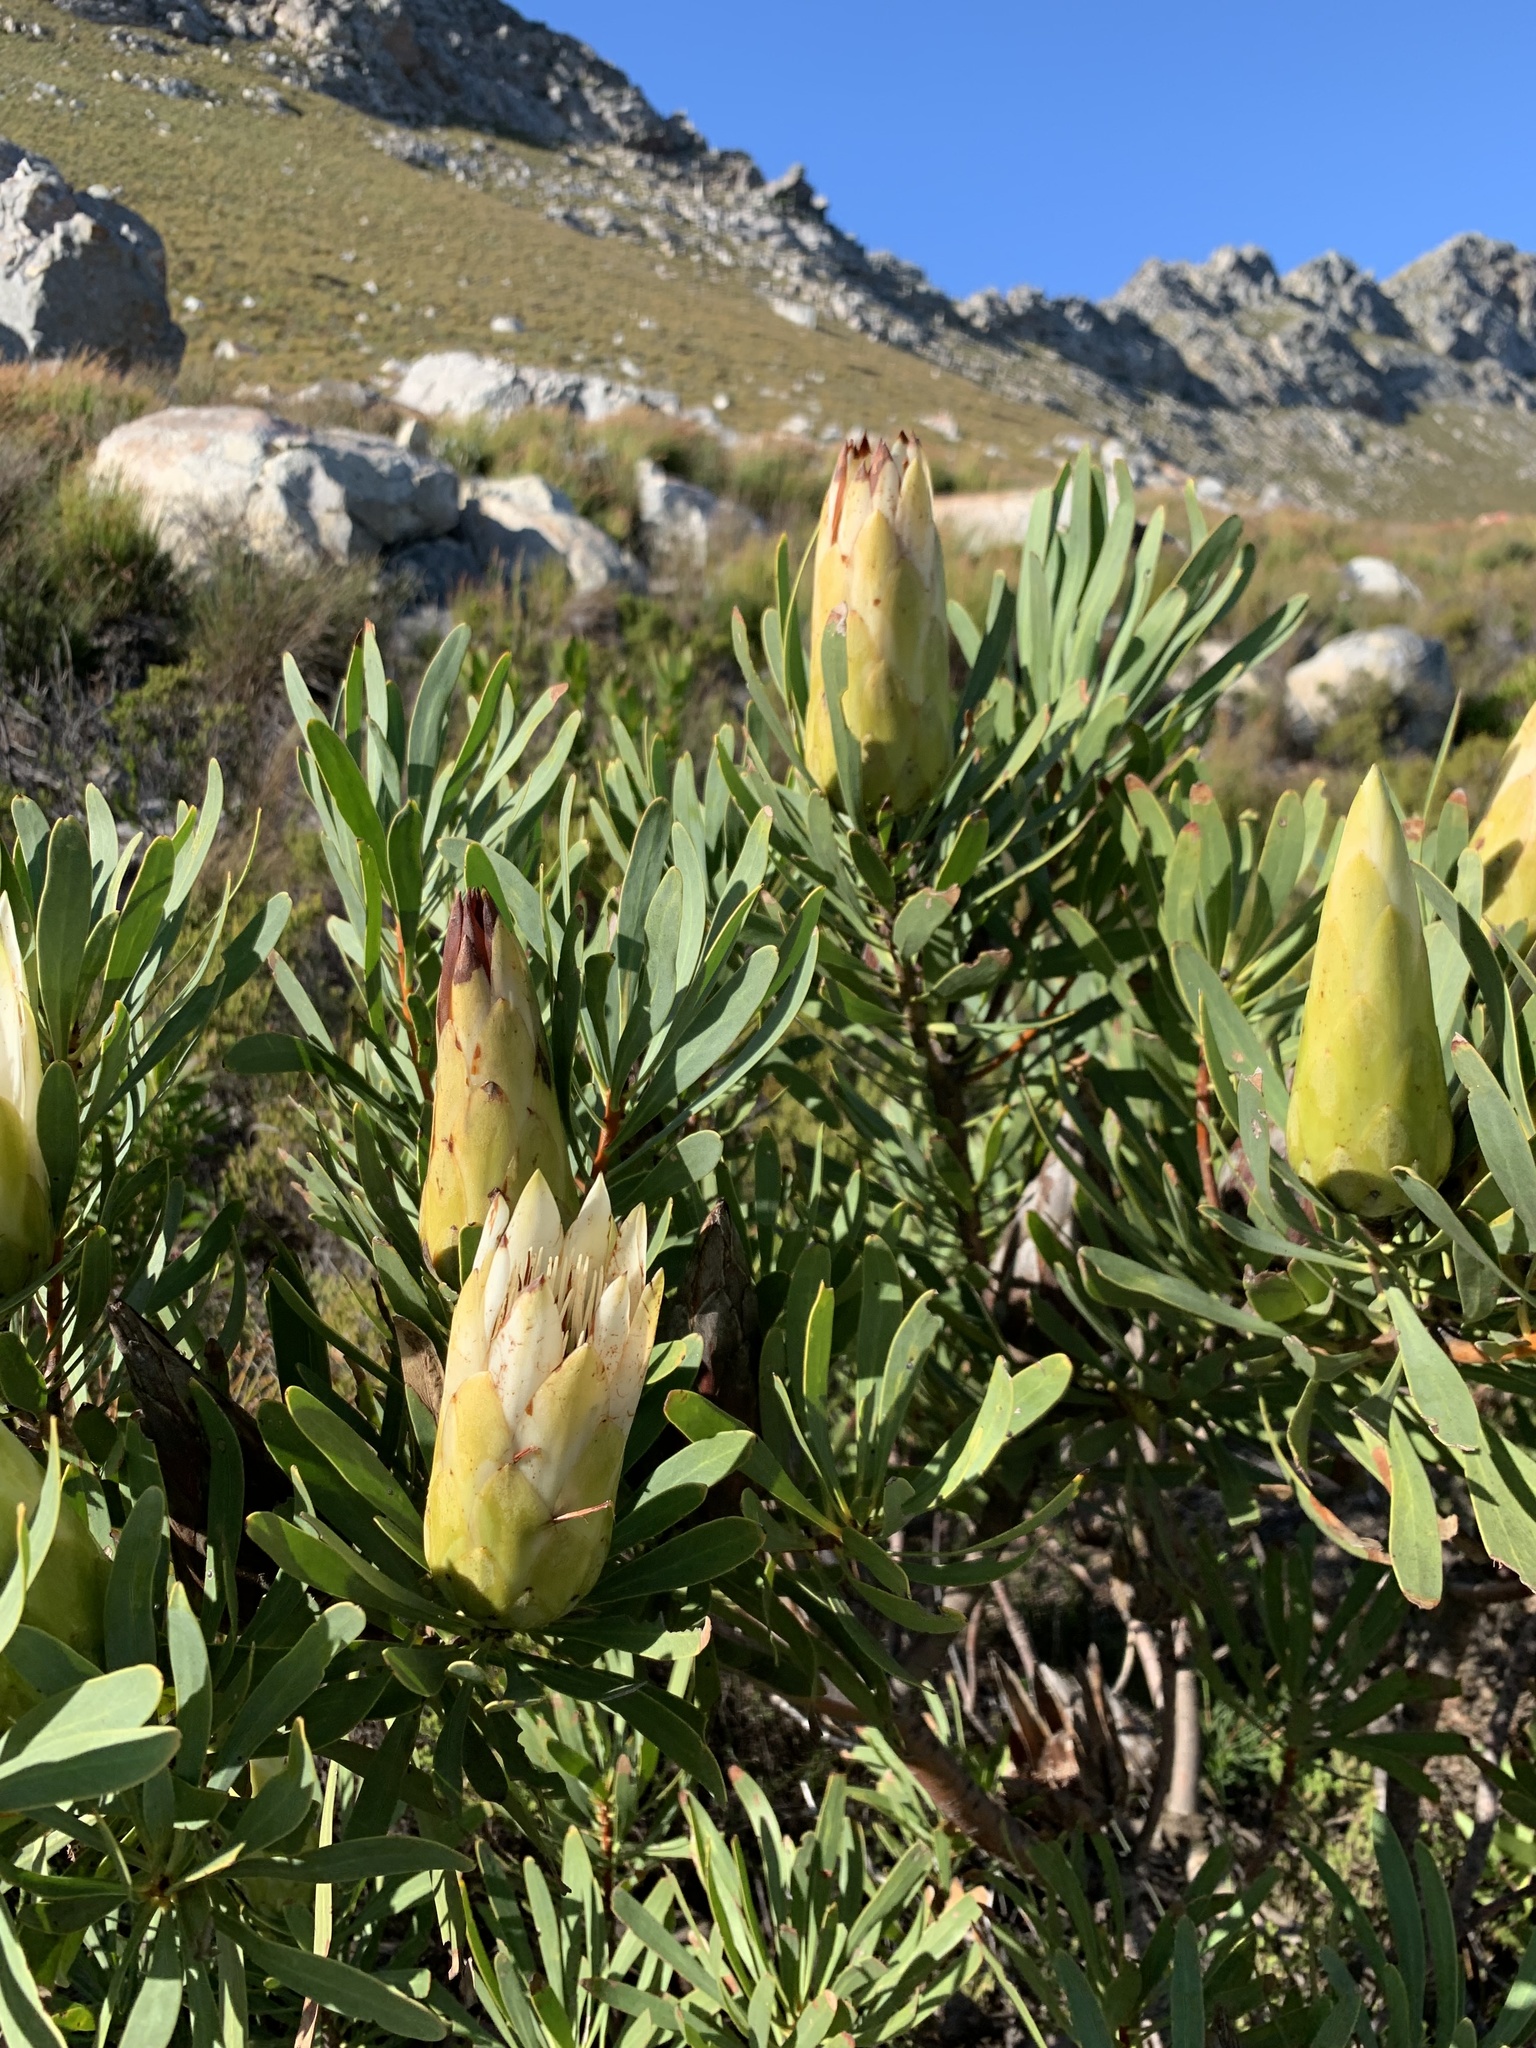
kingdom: Plantae
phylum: Tracheophyta
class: Magnoliopsida
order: Proteales
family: Proteaceae
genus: Protea
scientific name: Protea repens
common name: Sugarbush
